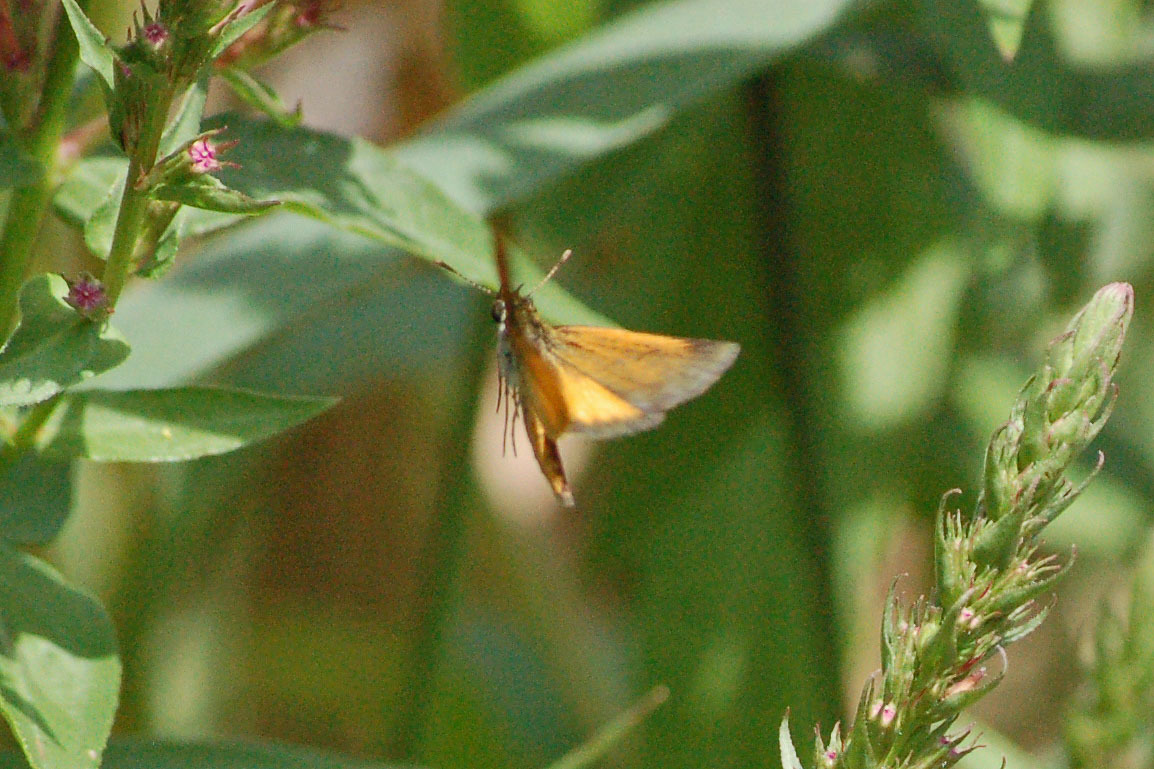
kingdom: Animalia
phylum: Arthropoda
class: Insecta
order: Lepidoptera
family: Hesperiidae
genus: Ancyloxypha
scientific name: Ancyloxypha numitor
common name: Least skipper
